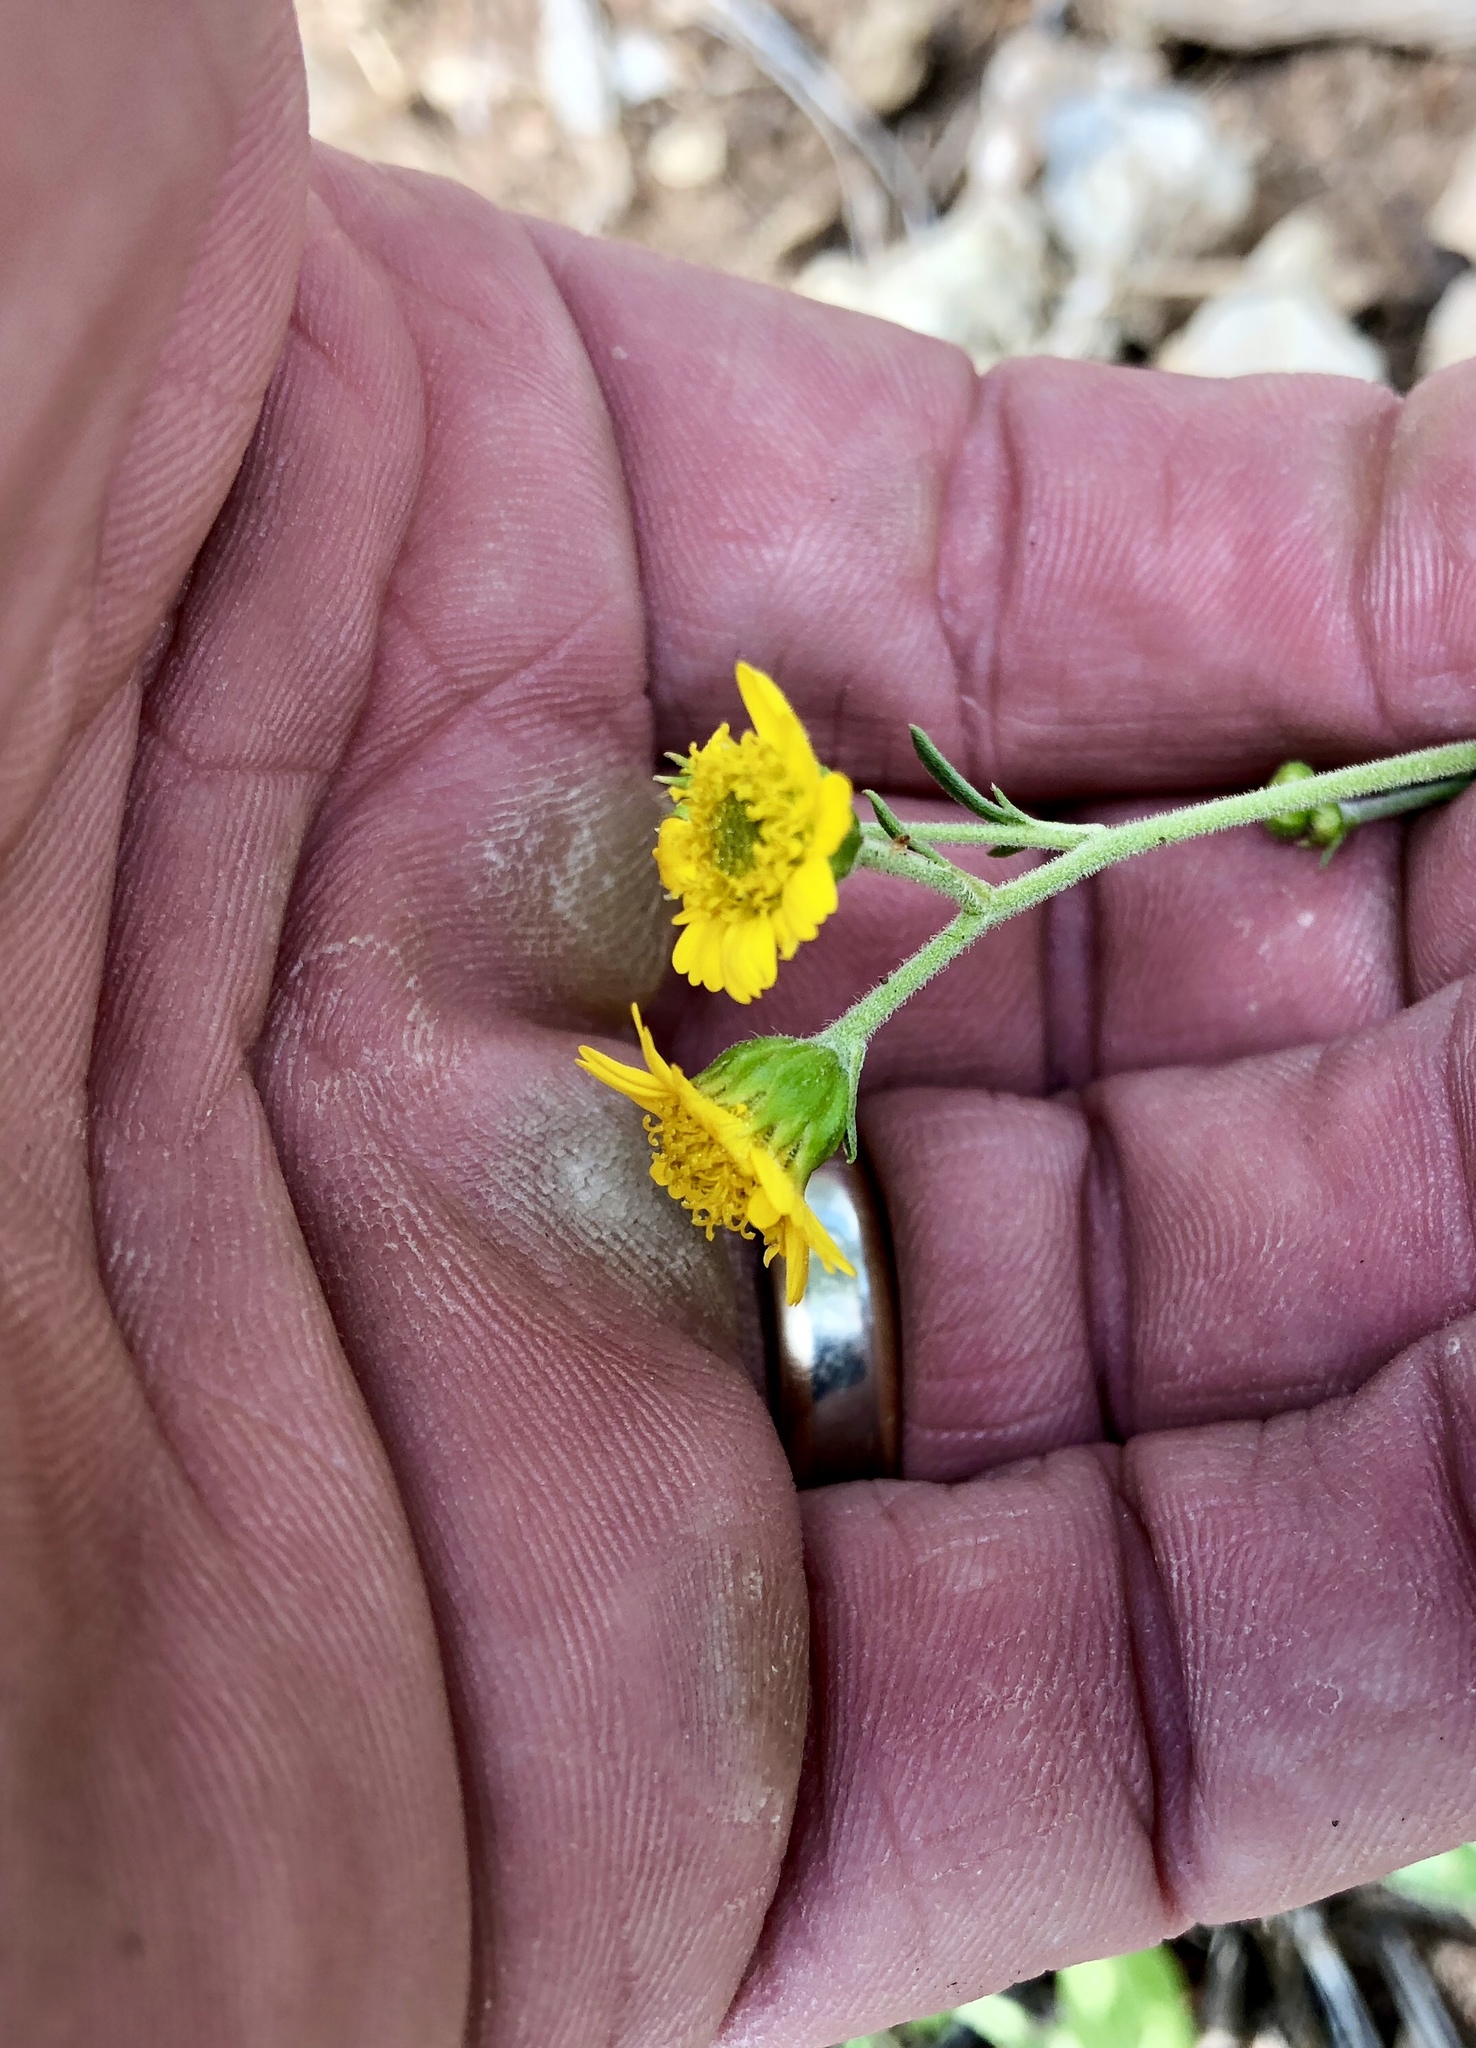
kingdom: Plantae
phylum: Tracheophyta
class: Magnoliopsida
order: Asterales
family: Asteraceae
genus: Hymenothrix
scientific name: Hymenothrix dissecta
